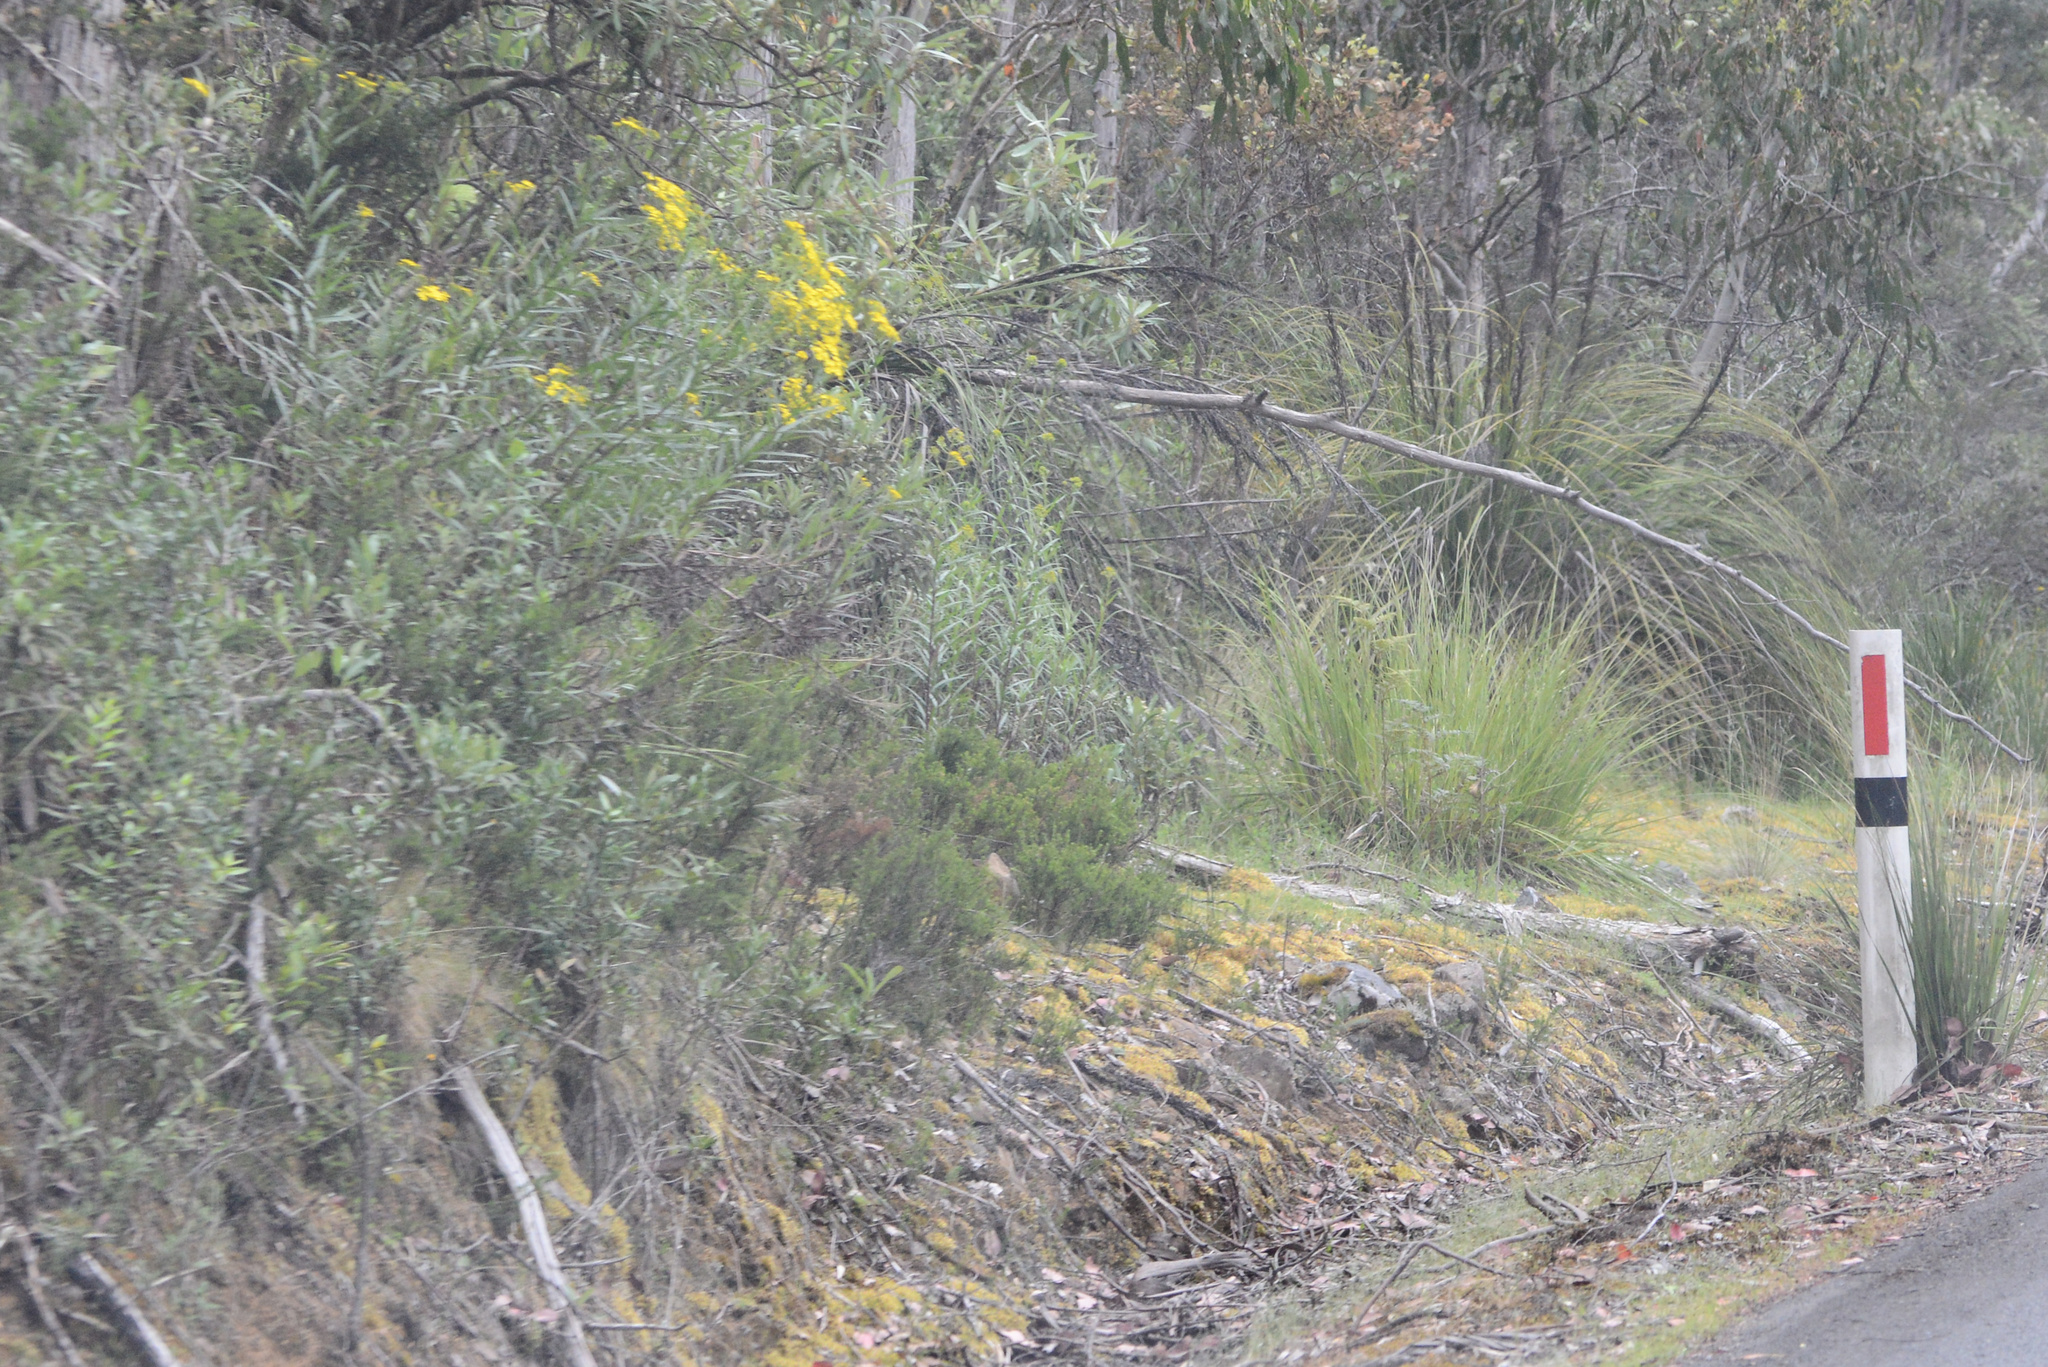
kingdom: Plantae
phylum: Tracheophyta
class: Magnoliopsida
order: Asterales
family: Asteraceae
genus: Senecio
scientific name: Senecio linearifolius
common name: Fireweed groundsel
